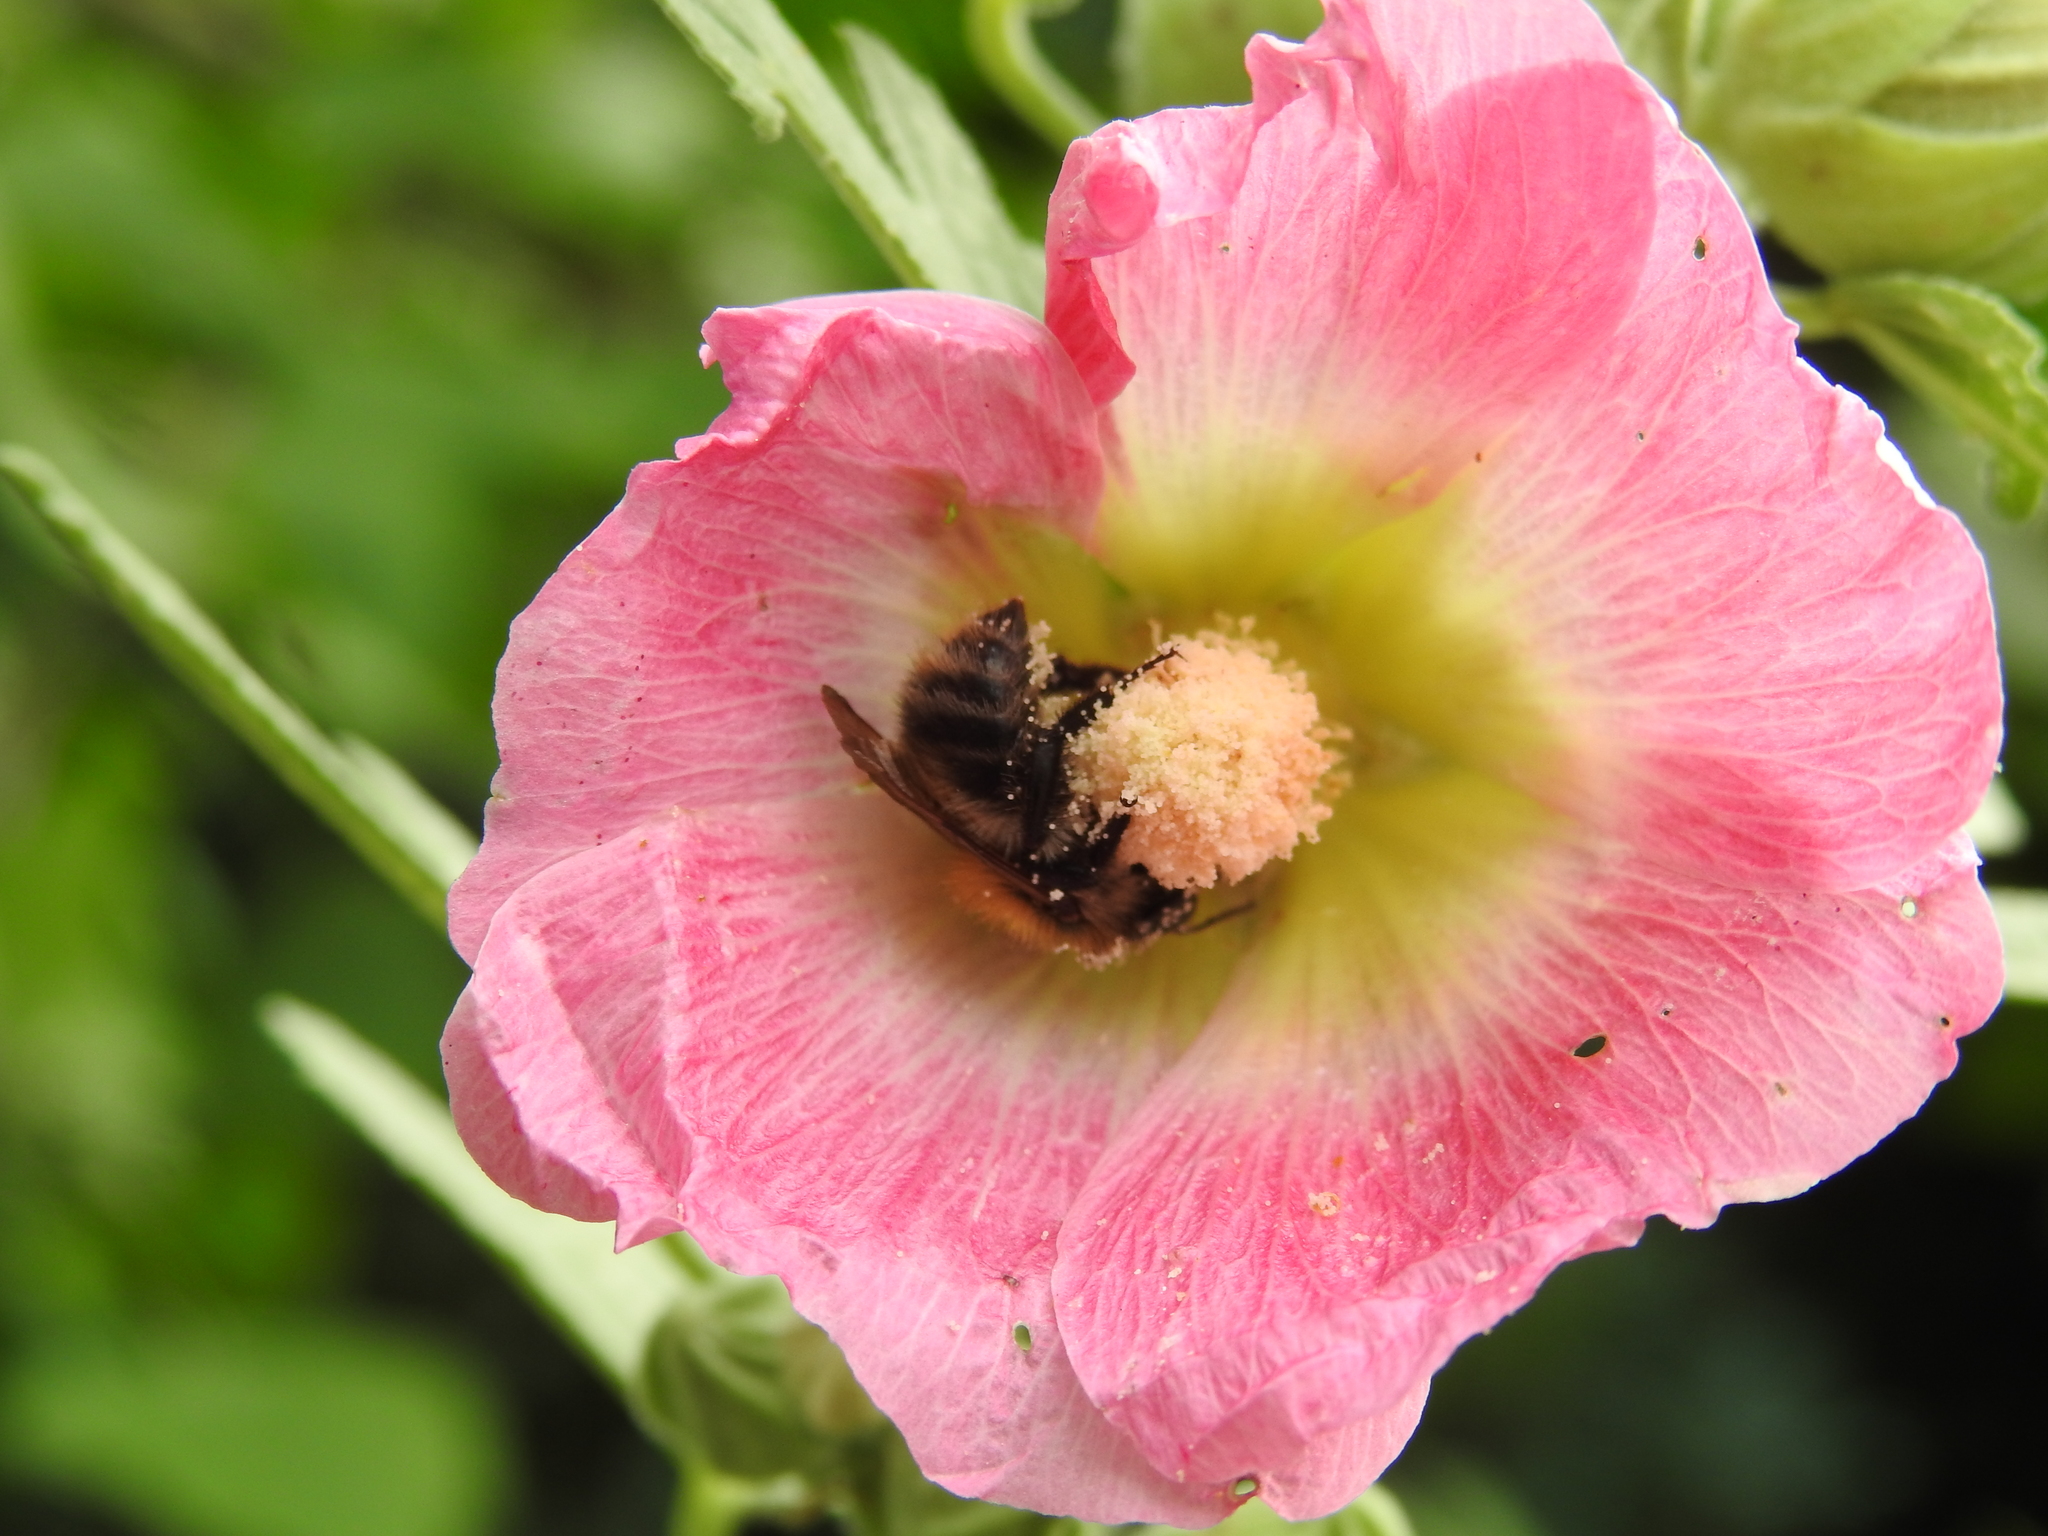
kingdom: Animalia
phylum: Arthropoda
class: Insecta
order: Hymenoptera
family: Apidae
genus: Apis
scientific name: Apis mellifera
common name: Honey bee
